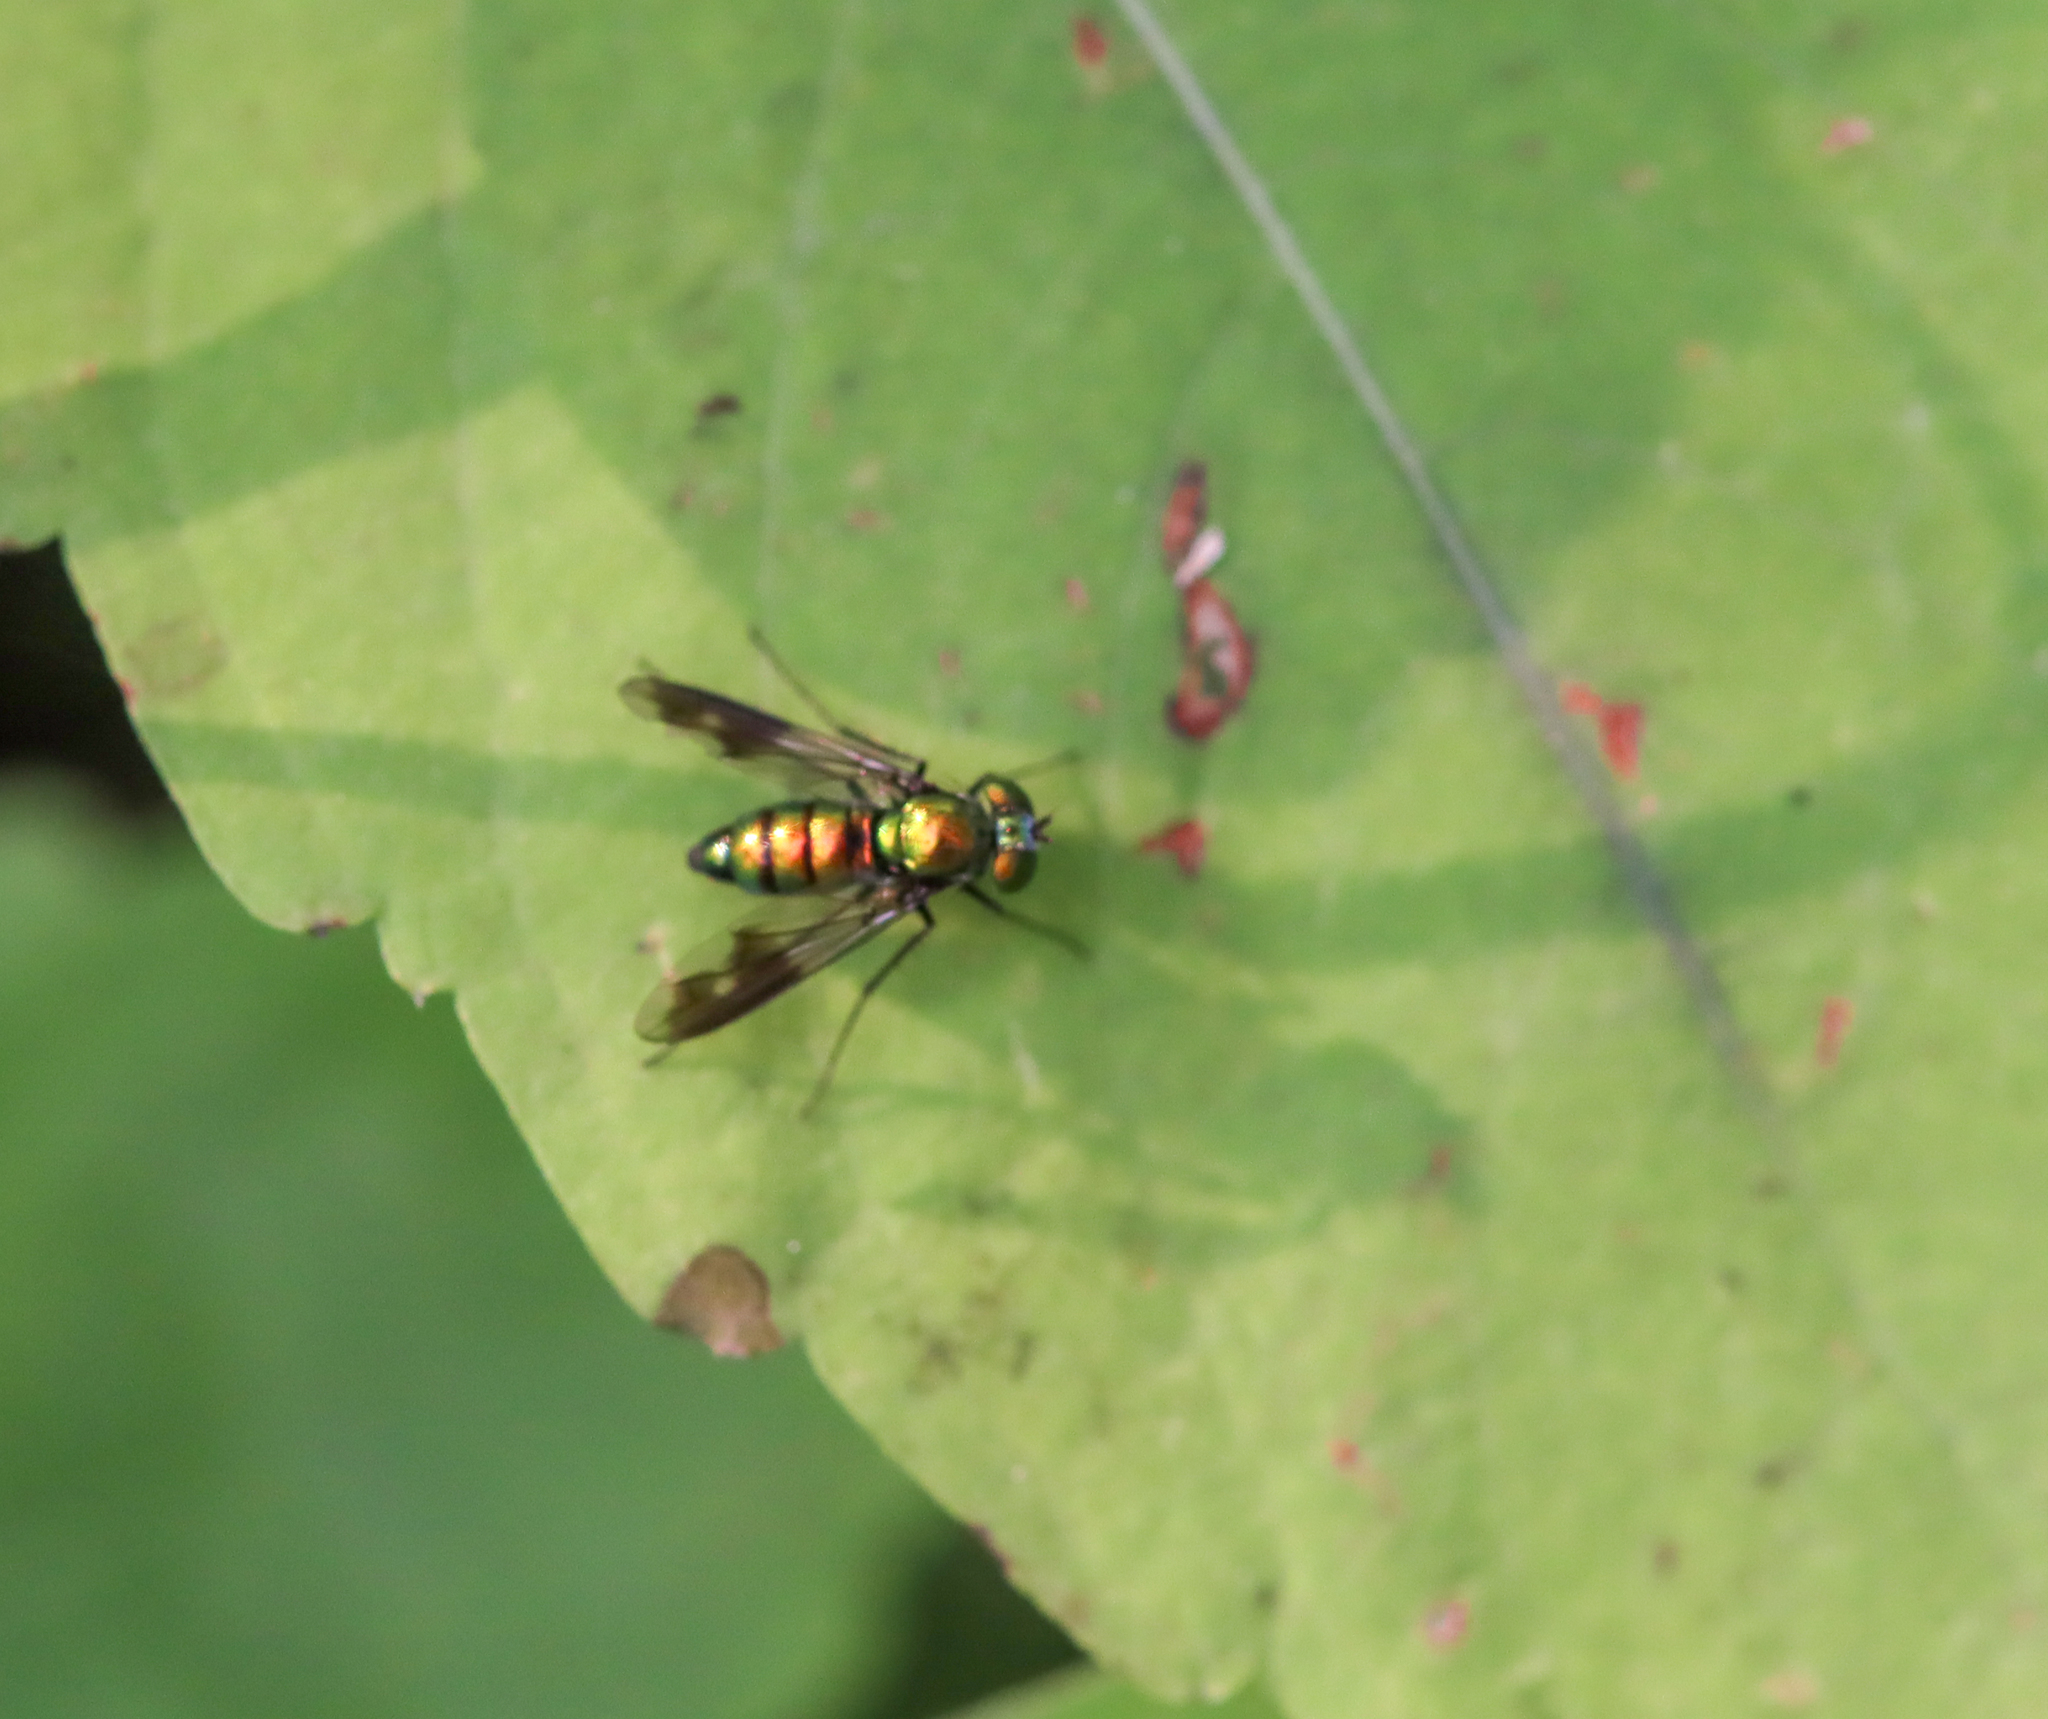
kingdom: Animalia
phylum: Arthropoda
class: Insecta
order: Diptera
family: Dolichopodidae
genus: Condylostylus
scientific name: Condylostylus patibulatus
